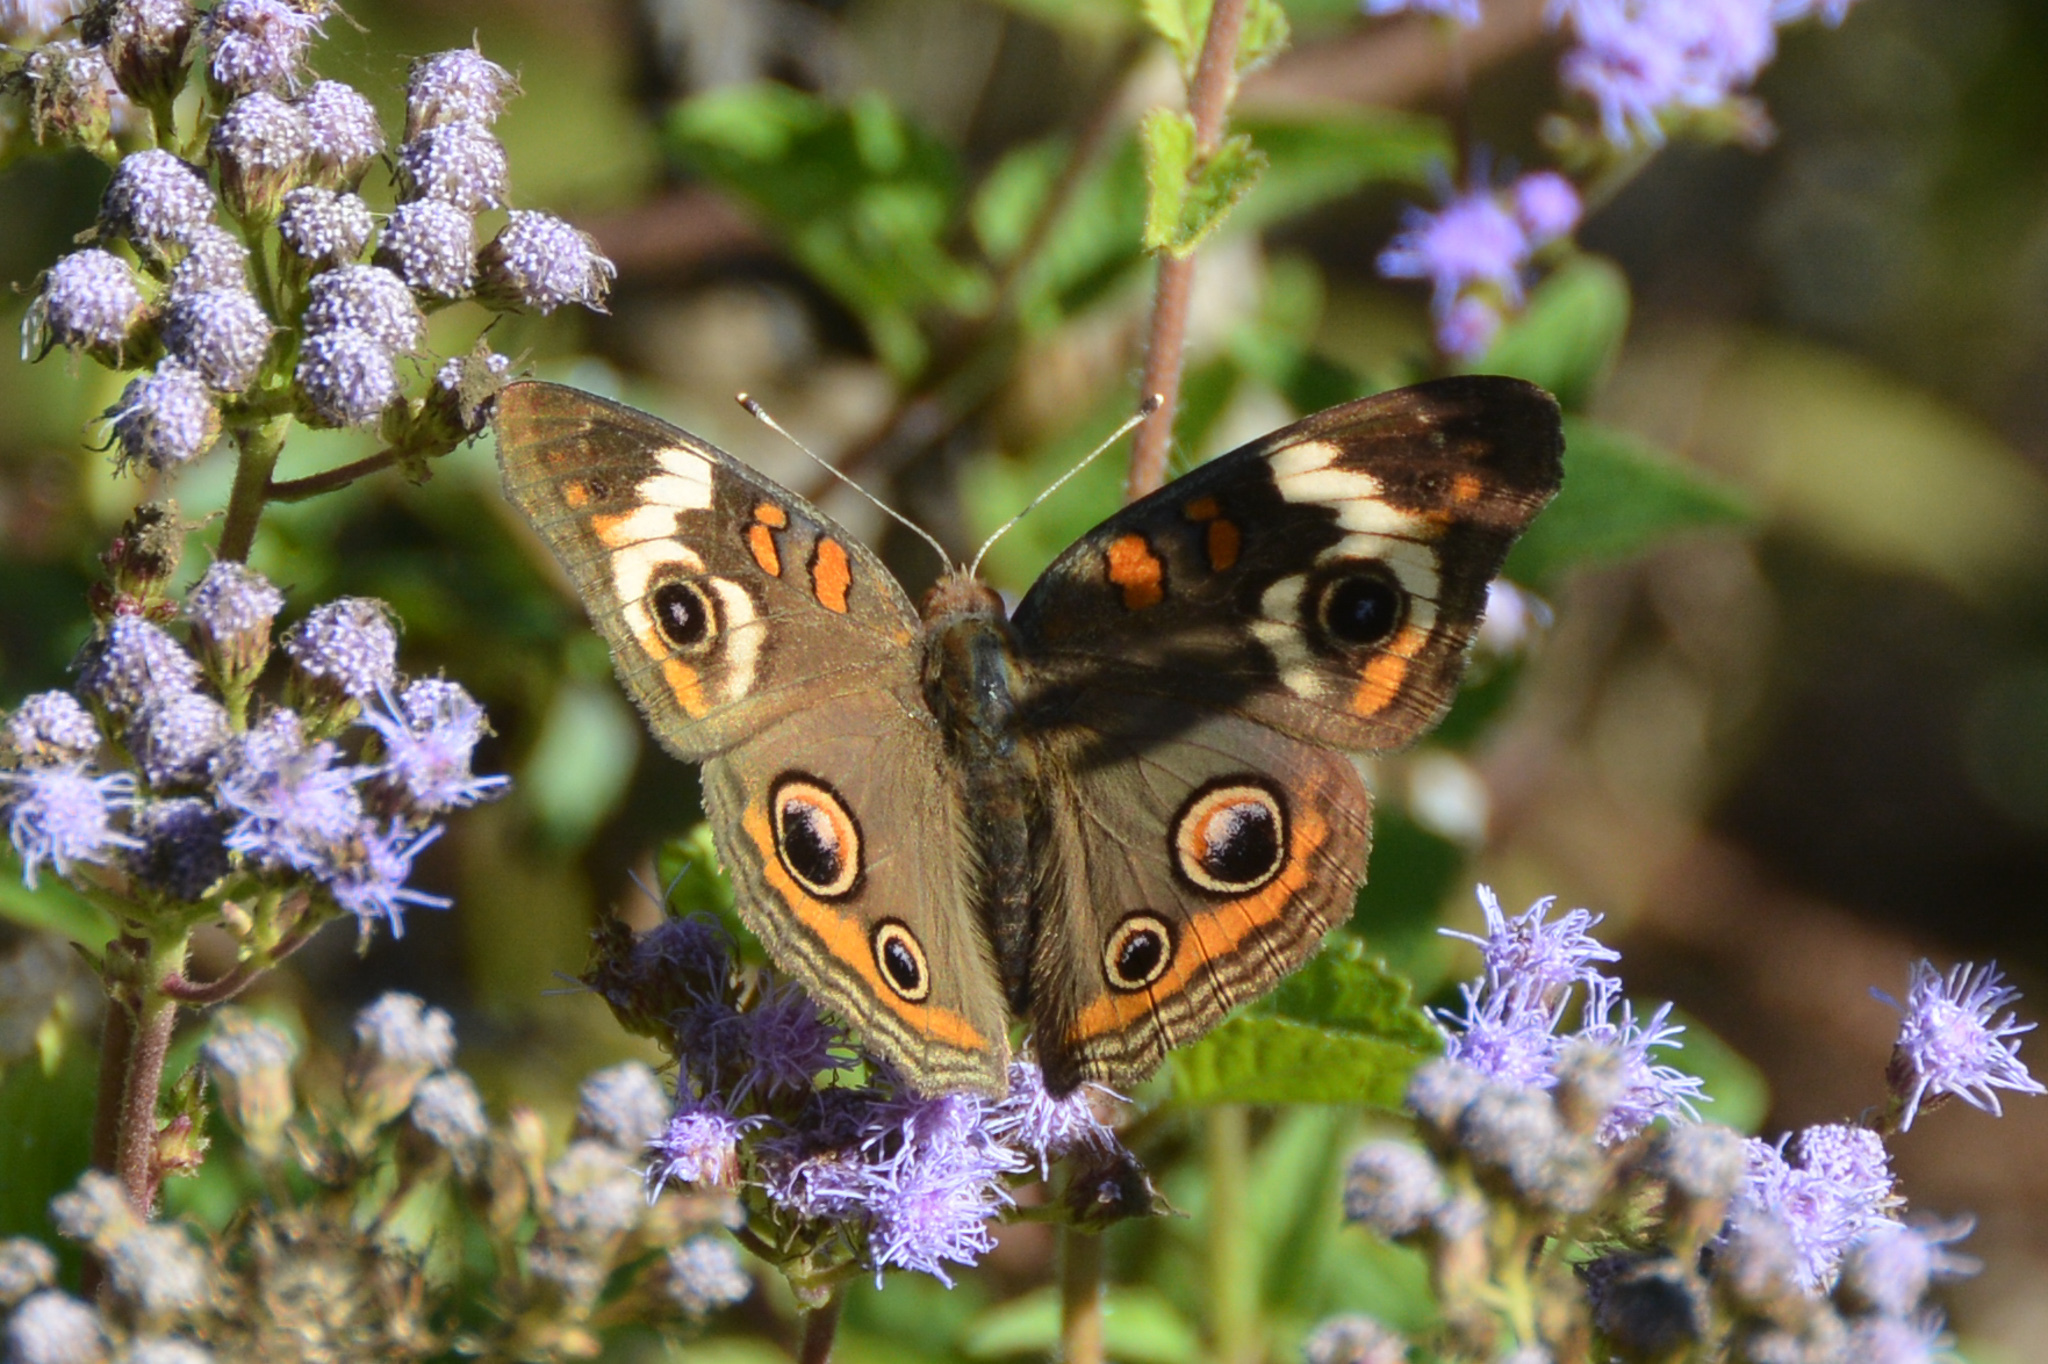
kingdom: Animalia
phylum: Arthropoda
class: Insecta
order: Lepidoptera
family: Nymphalidae
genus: Junonia
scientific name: Junonia coenia
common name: Common buckeye
